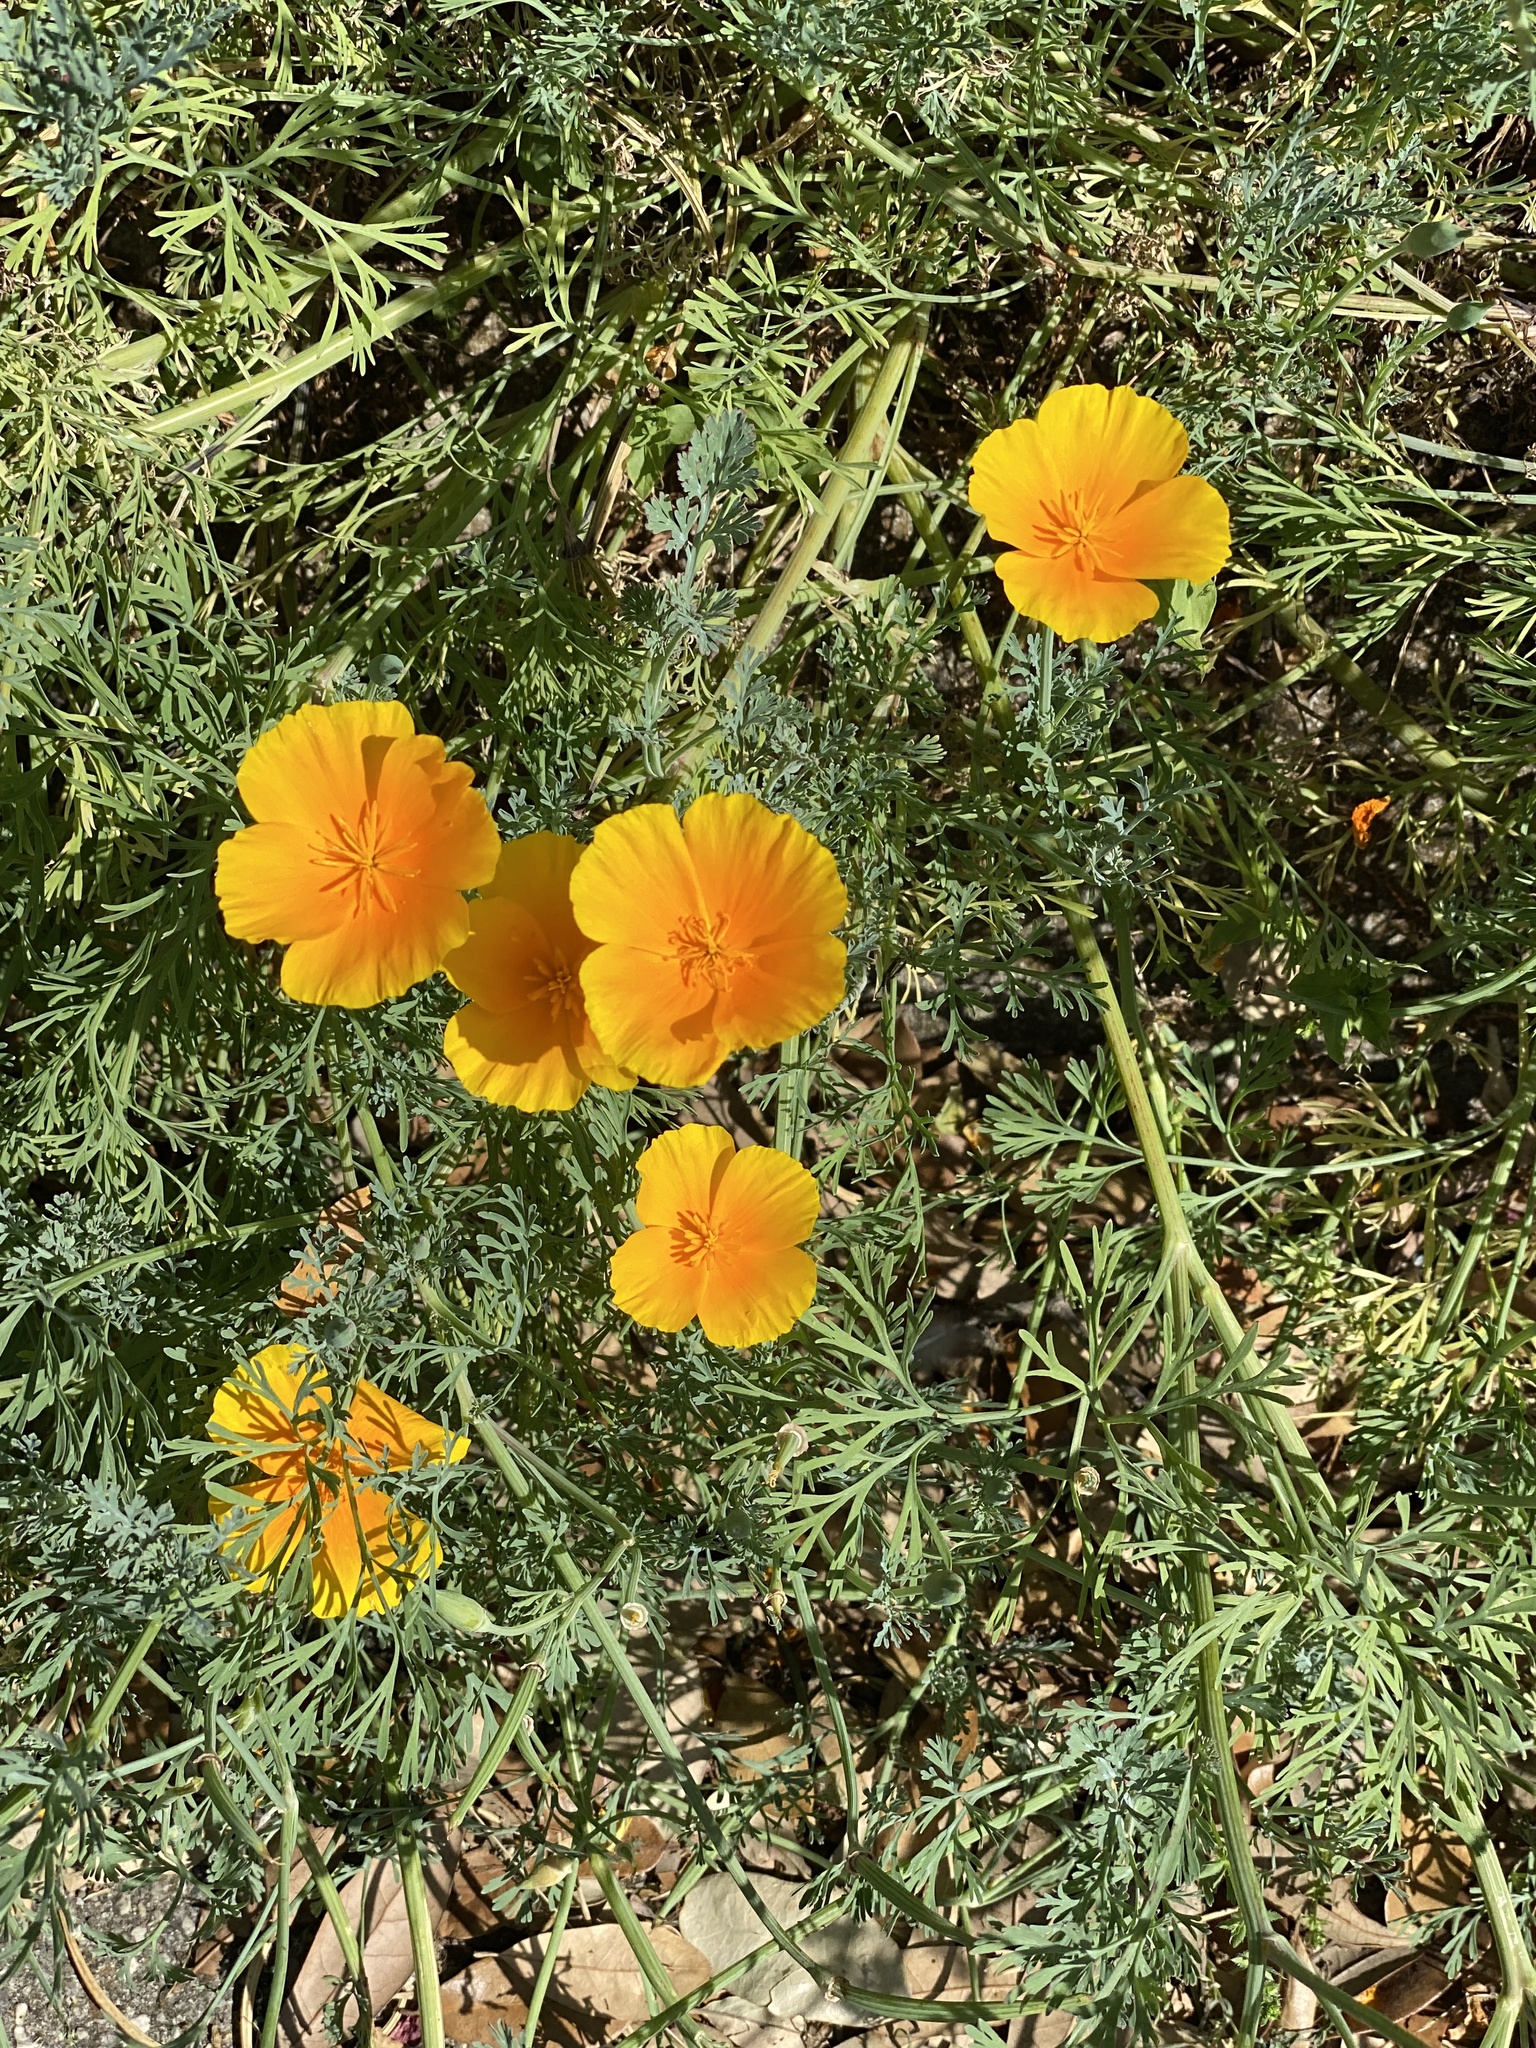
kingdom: Plantae
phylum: Tracheophyta
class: Magnoliopsida
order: Ranunculales
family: Papaveraceae
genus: Eschscholzia
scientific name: Eschscholzia californica
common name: California poppy
